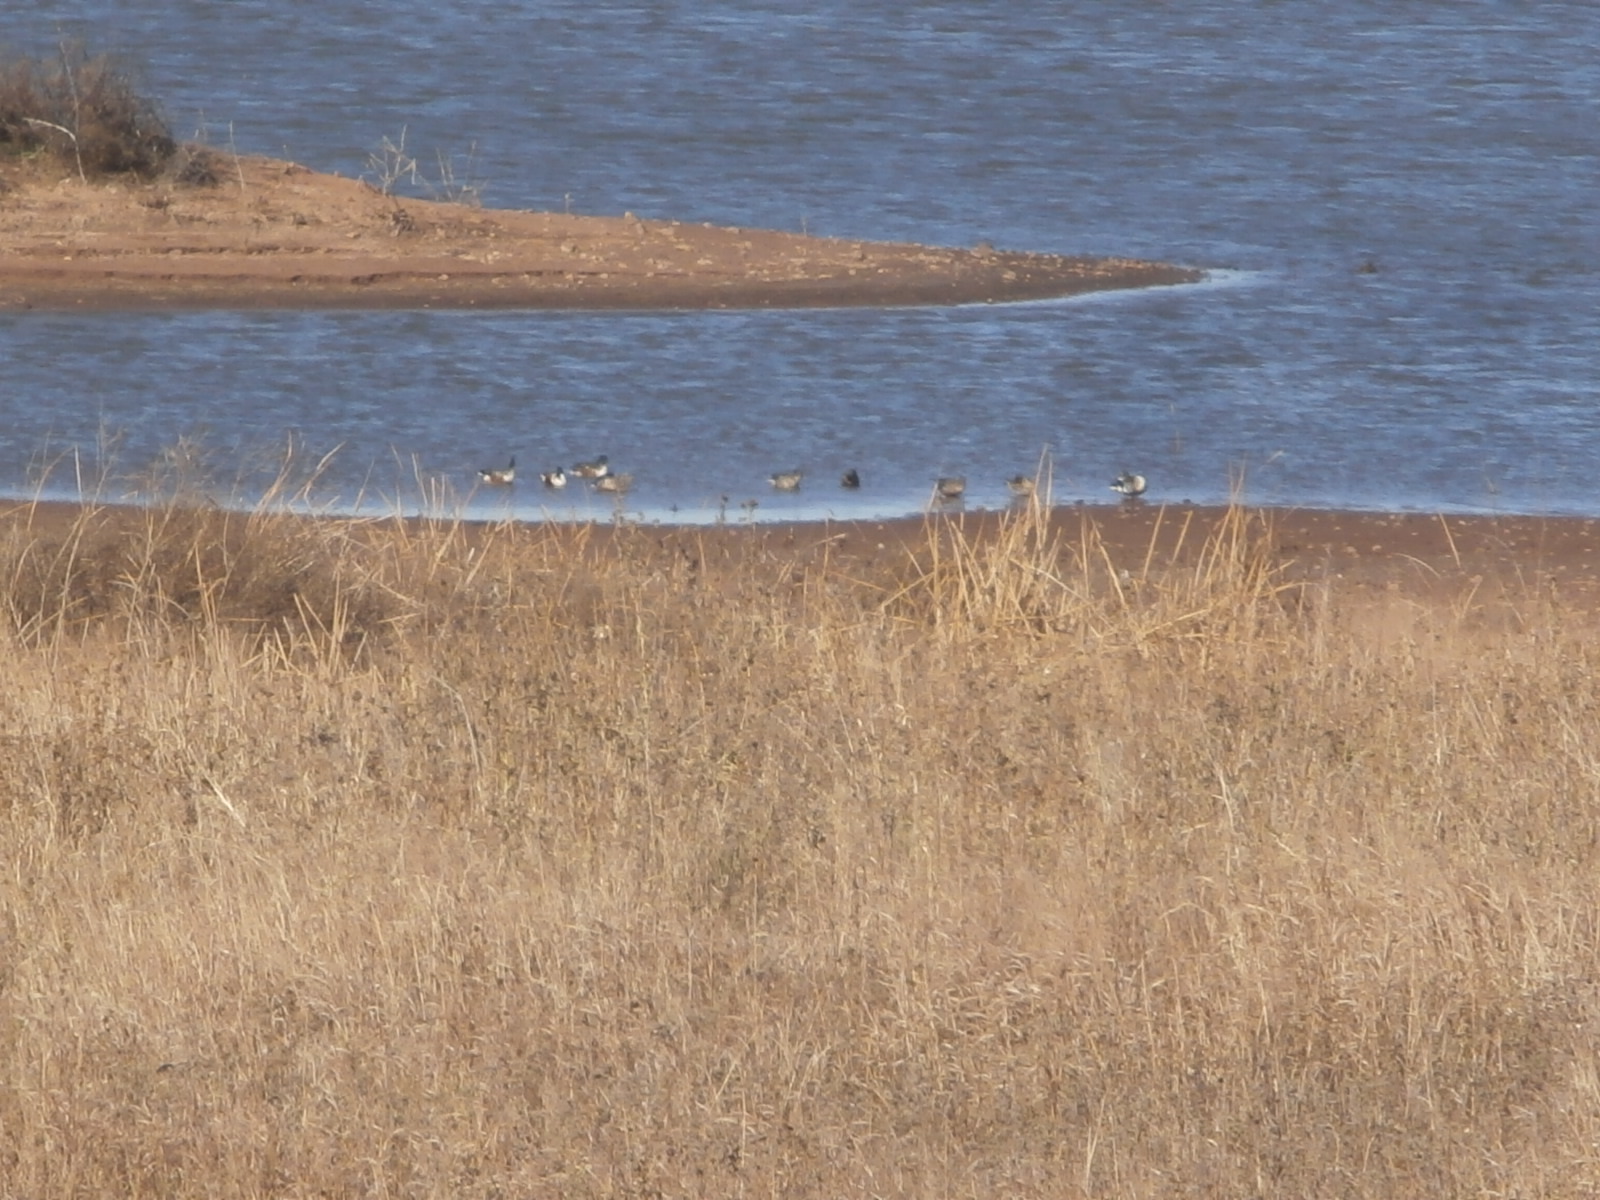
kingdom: Animalia
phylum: Chordata
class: Aves
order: Anseriformes
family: Anatidae
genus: Spatula
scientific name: Spatula clypeata
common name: Northern shoveler
